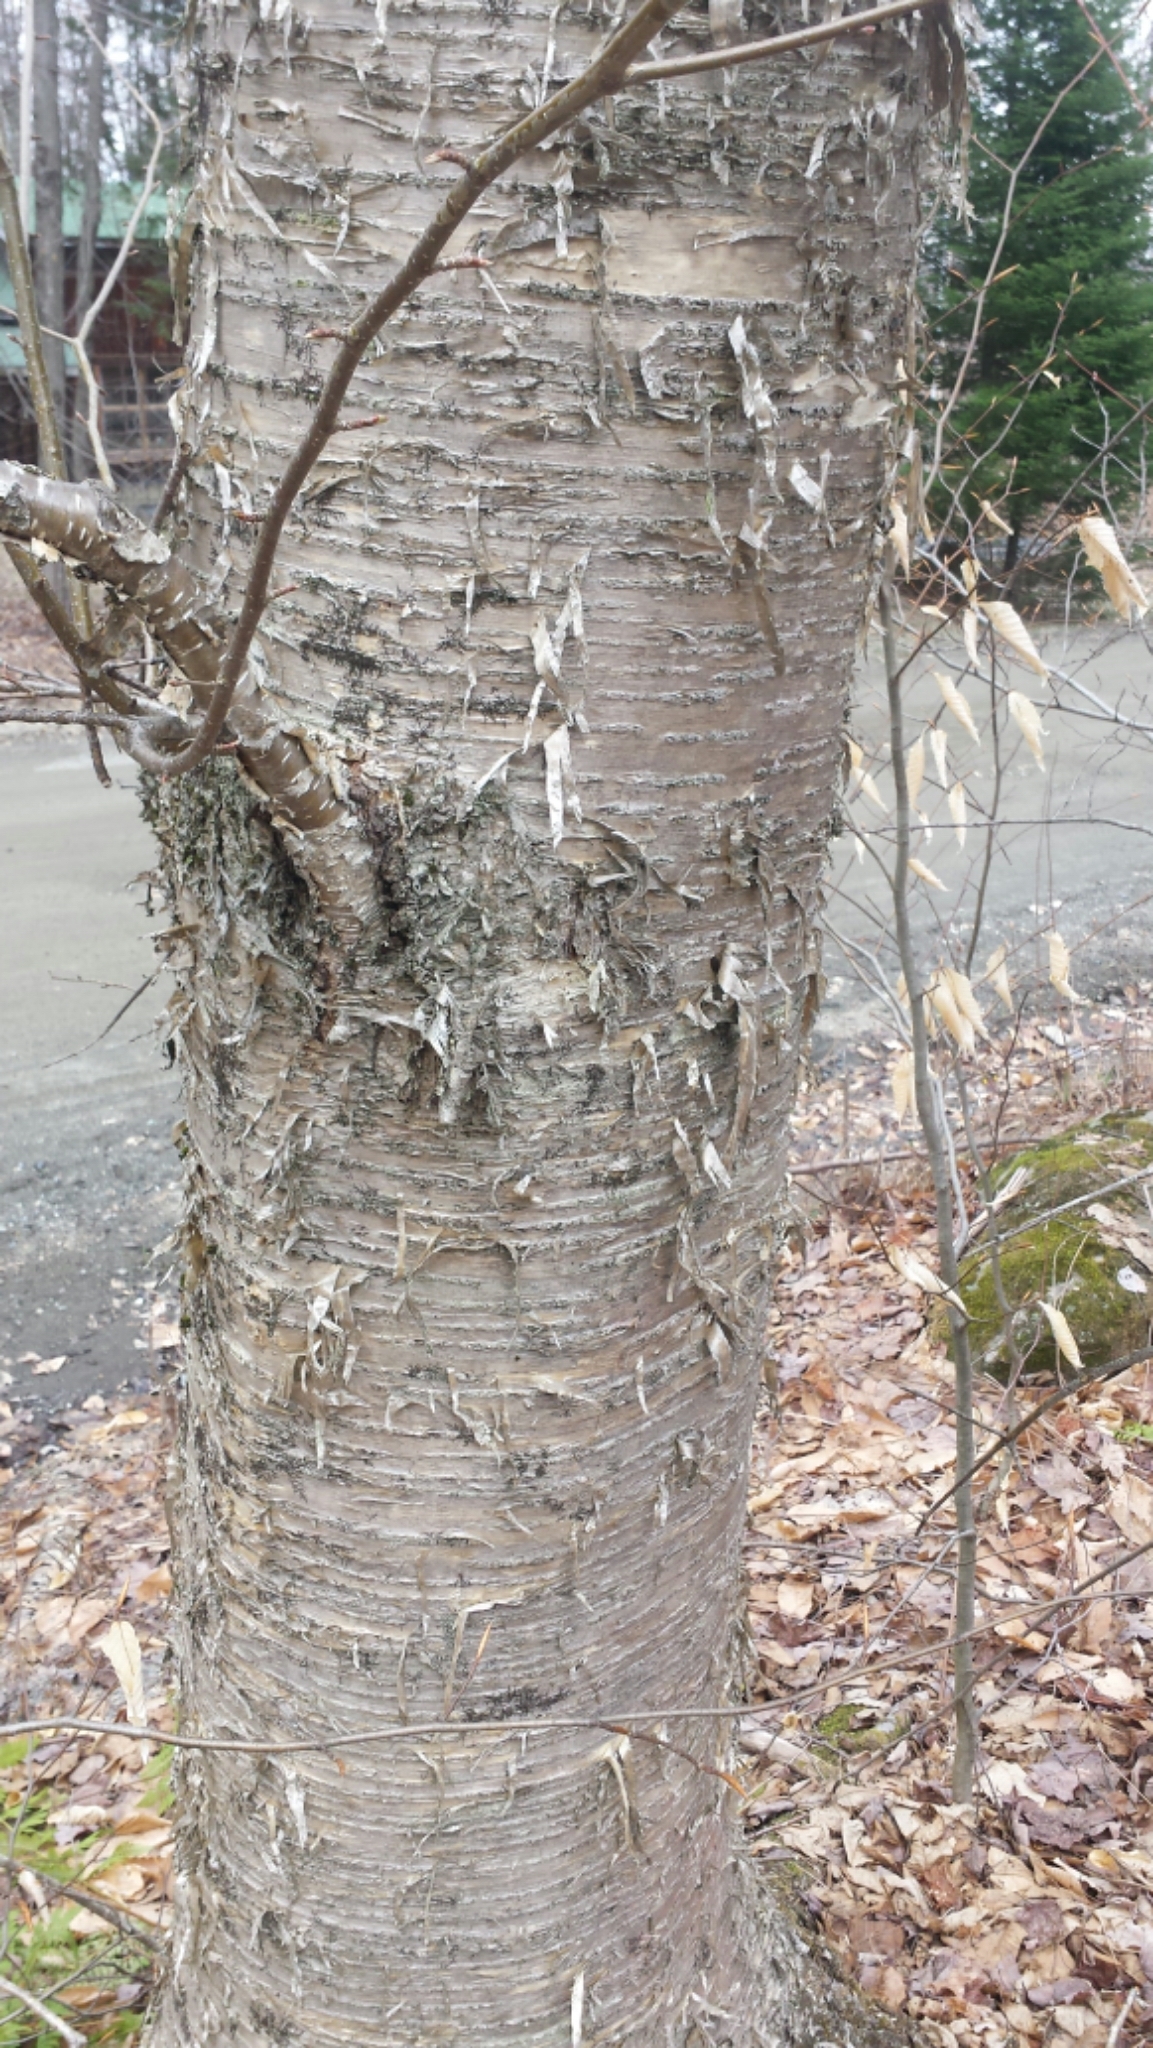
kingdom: Plantae
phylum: Tracheophyta
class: Magnoliopsida
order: Fagales
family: Betulaceae
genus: Betula
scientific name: Betula alleghaniensis
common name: Yellow birch
